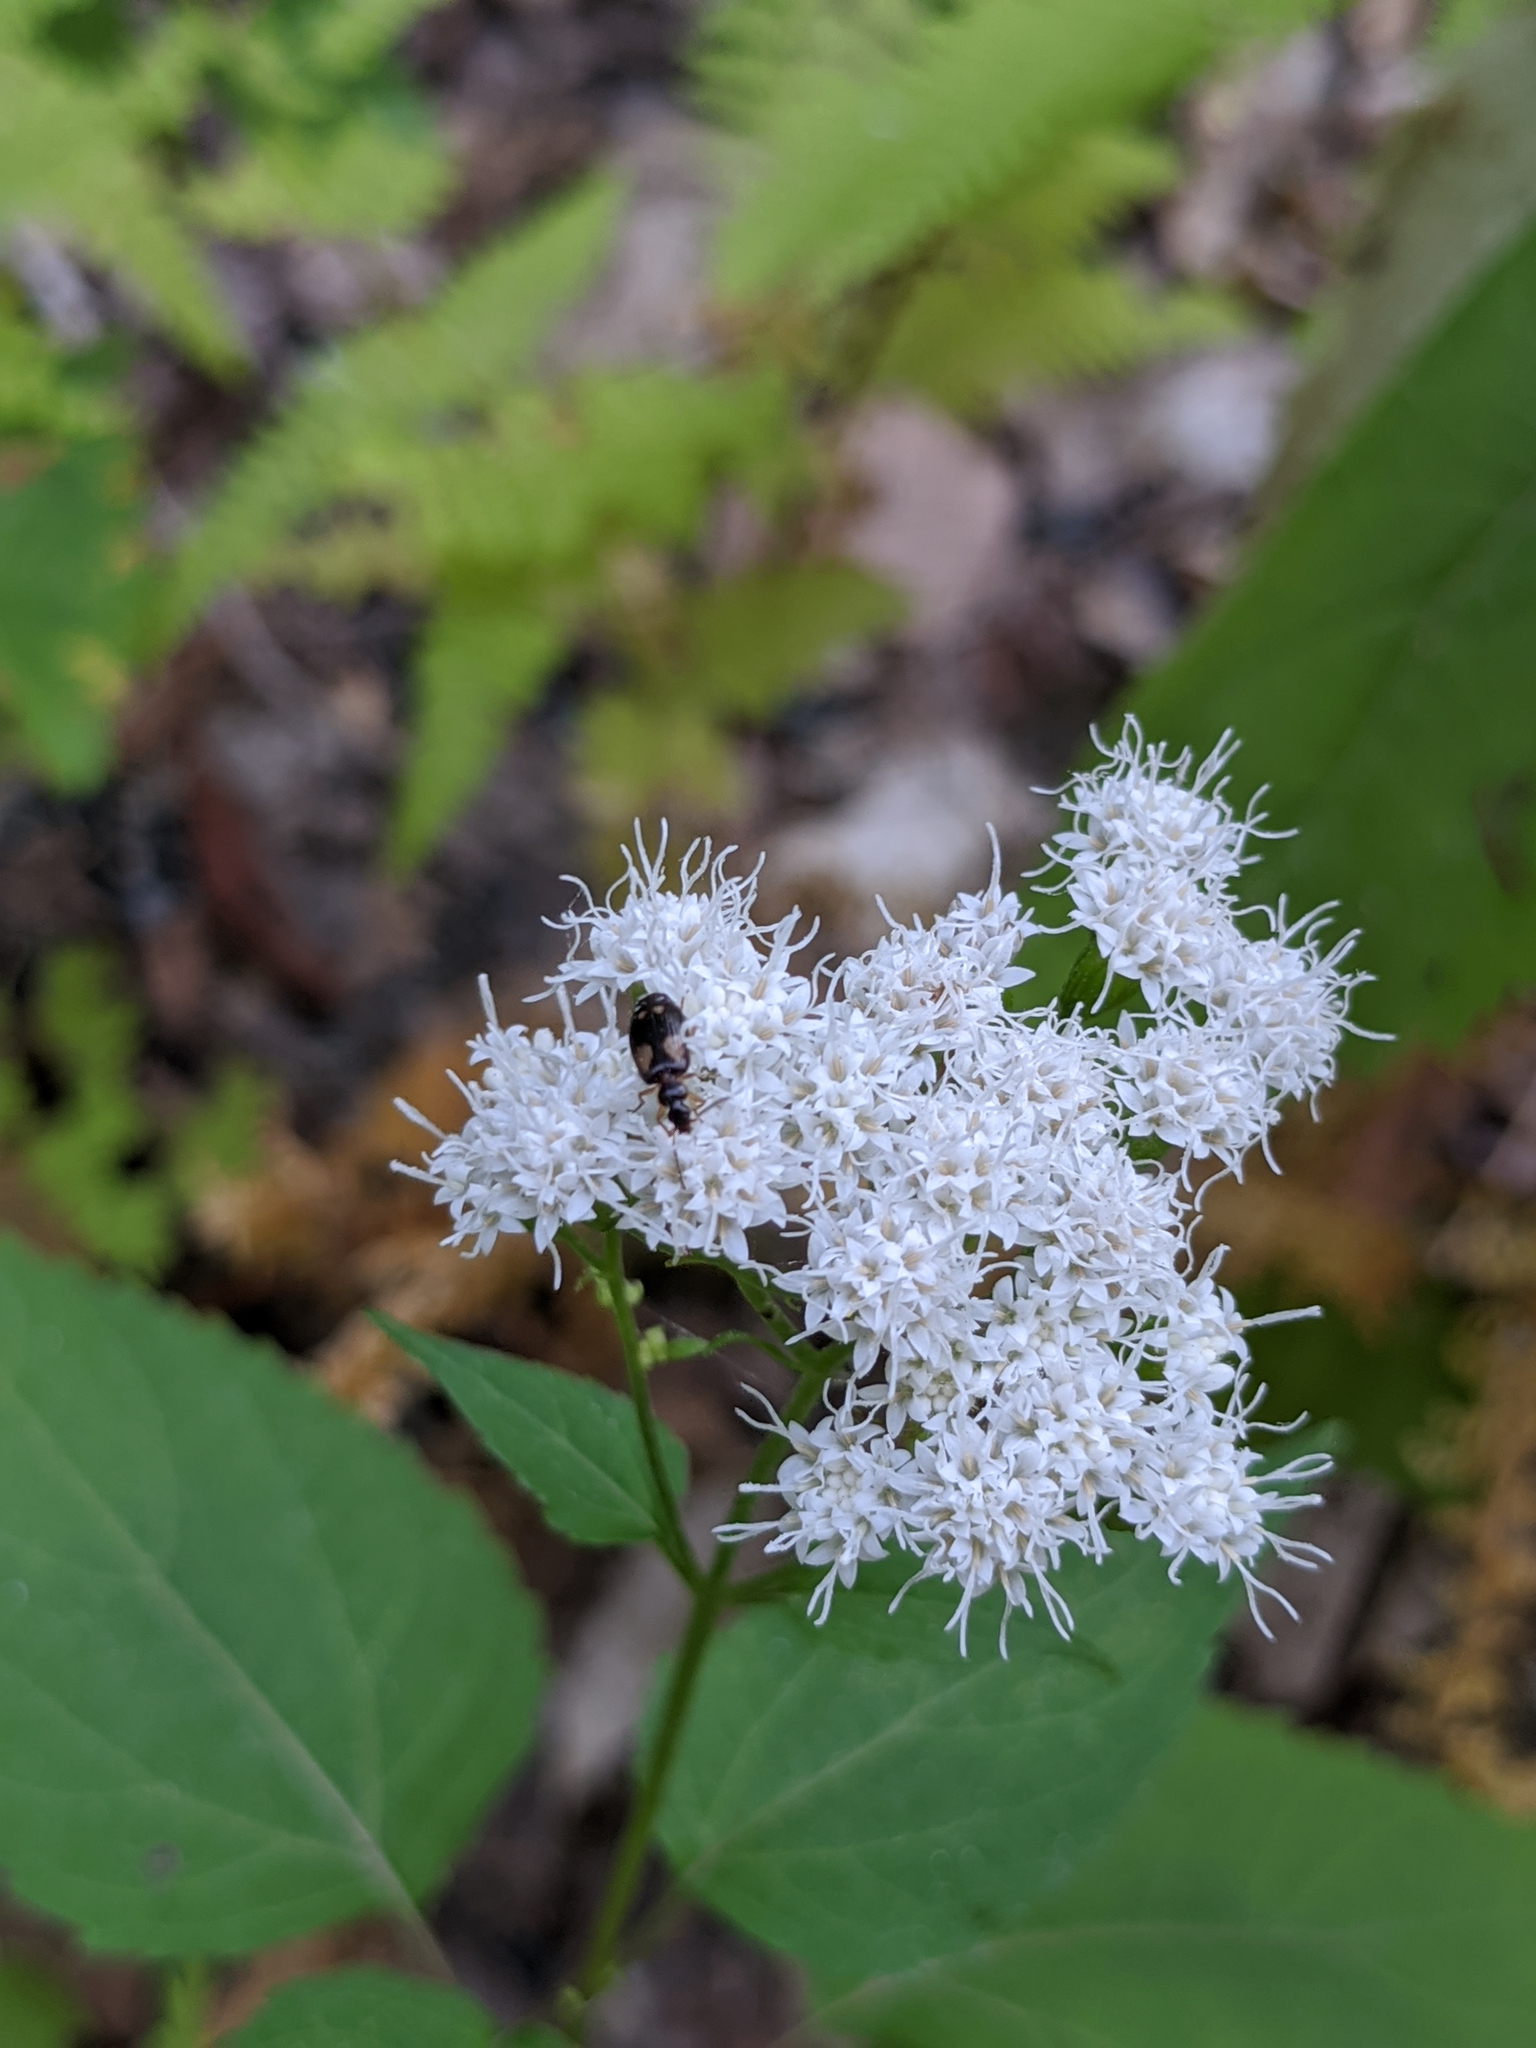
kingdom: Plantae
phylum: Tracheophyta
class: Magnoliopsida
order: Asterales
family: Asteraceae
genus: Ageratina
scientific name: Ageratina altissima
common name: White snakeroot
